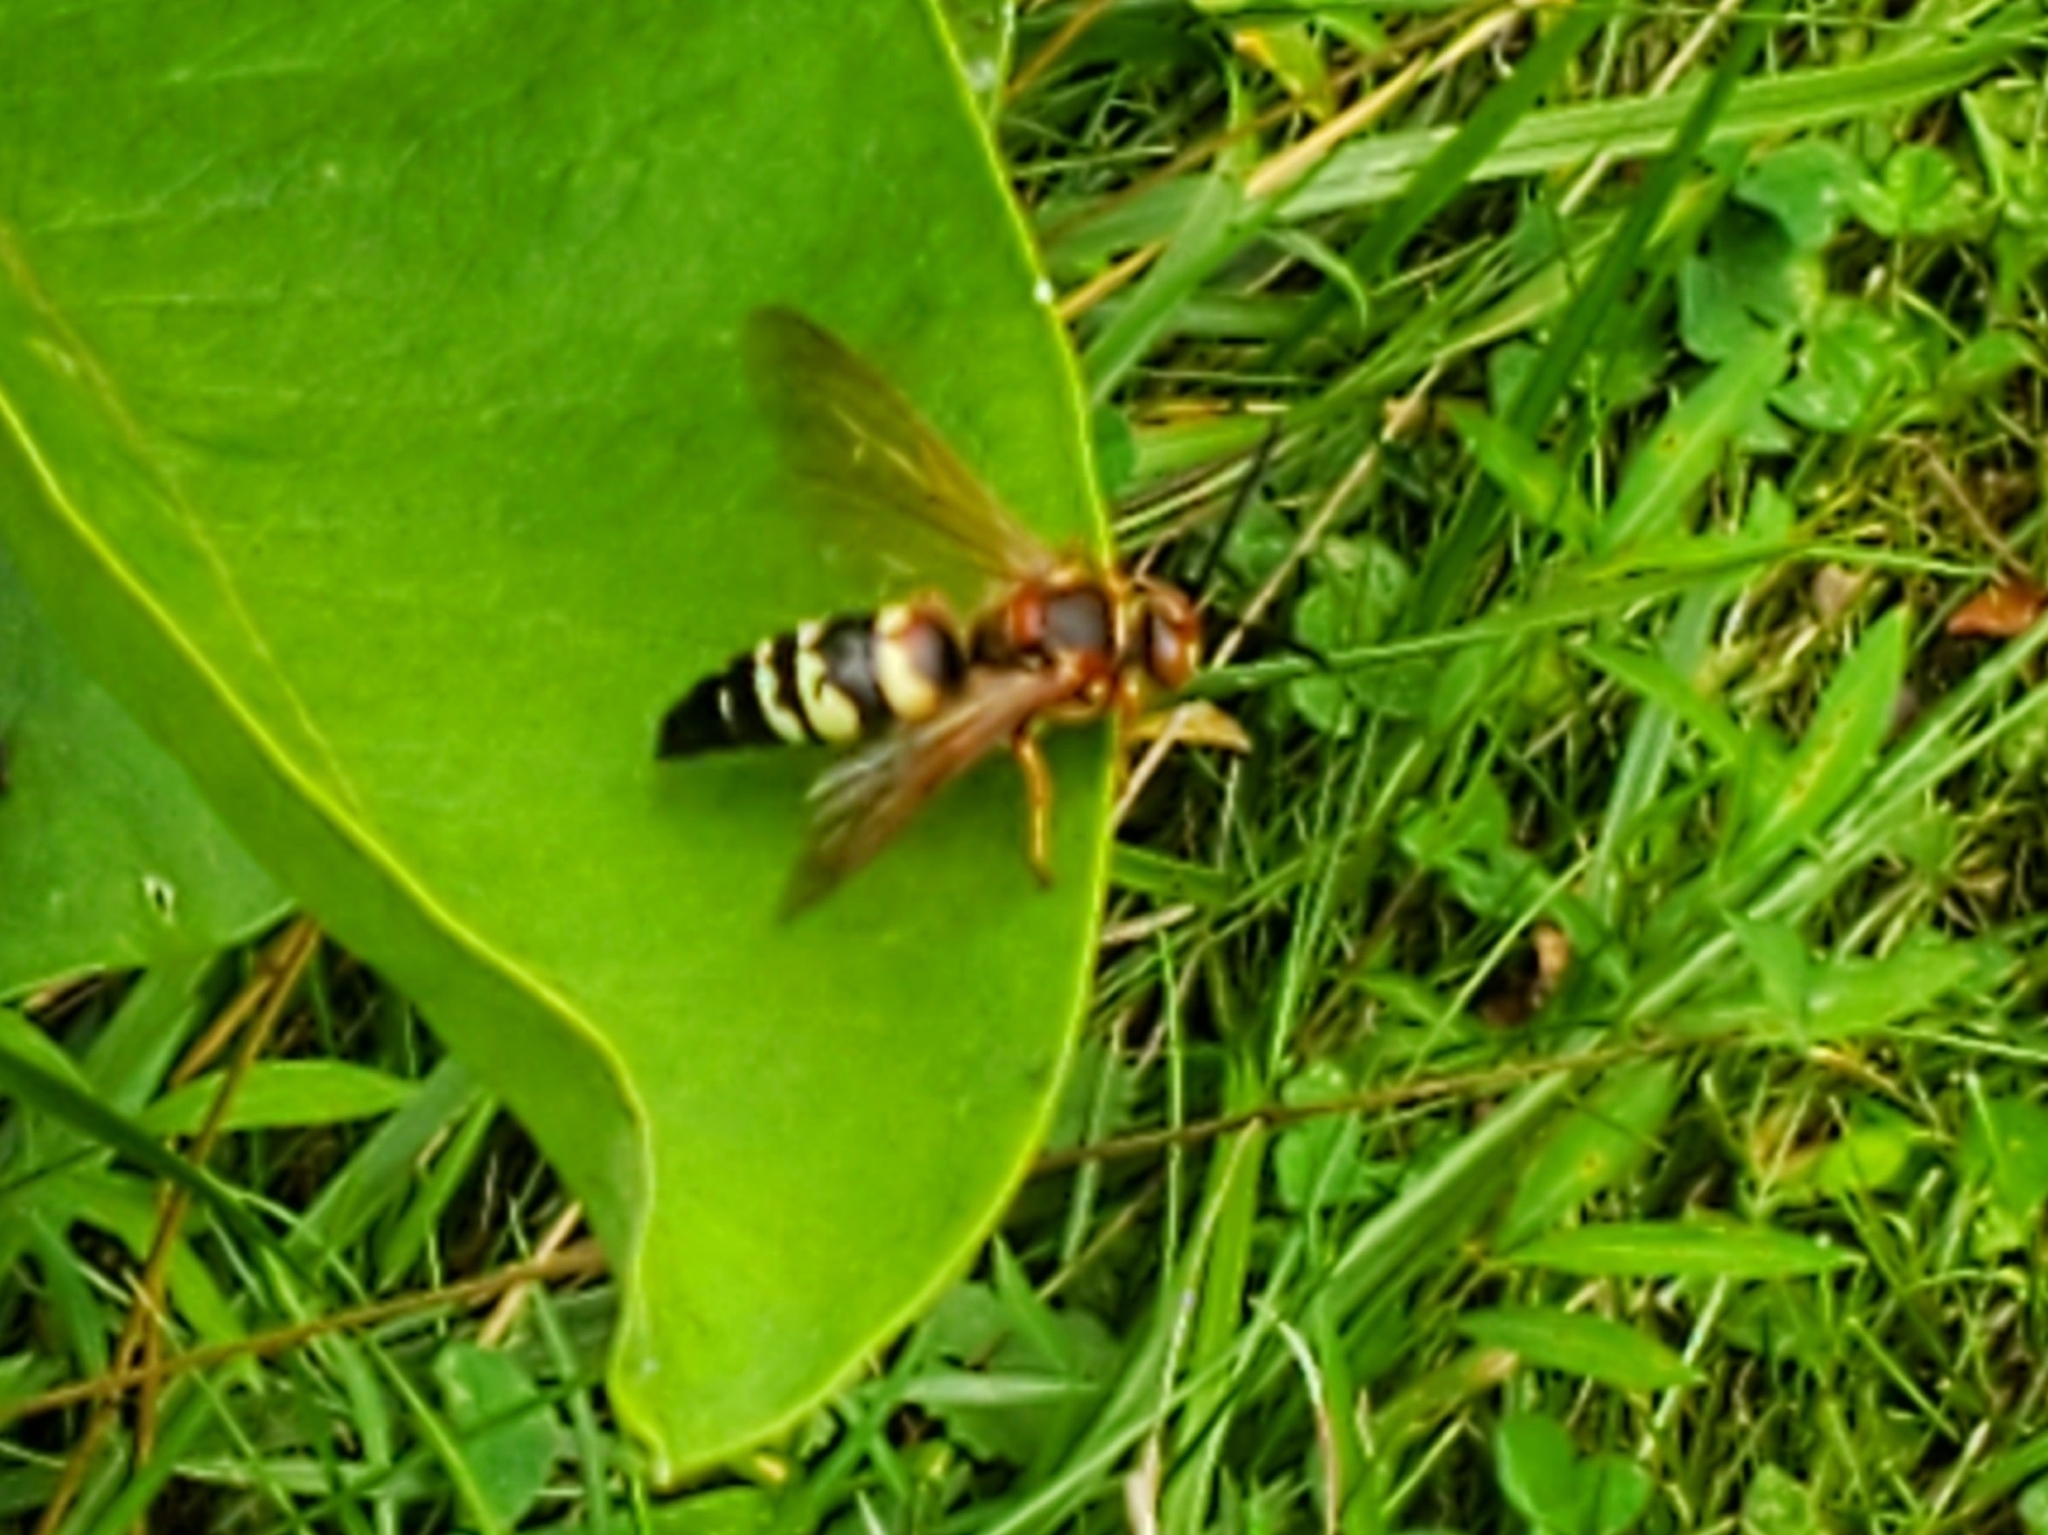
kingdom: Animalia
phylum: Arthropoda
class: Insecta
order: Hymenoptera
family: Crabronidae
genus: Sphecius
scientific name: Sphecius speciosus
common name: Cicada killer
